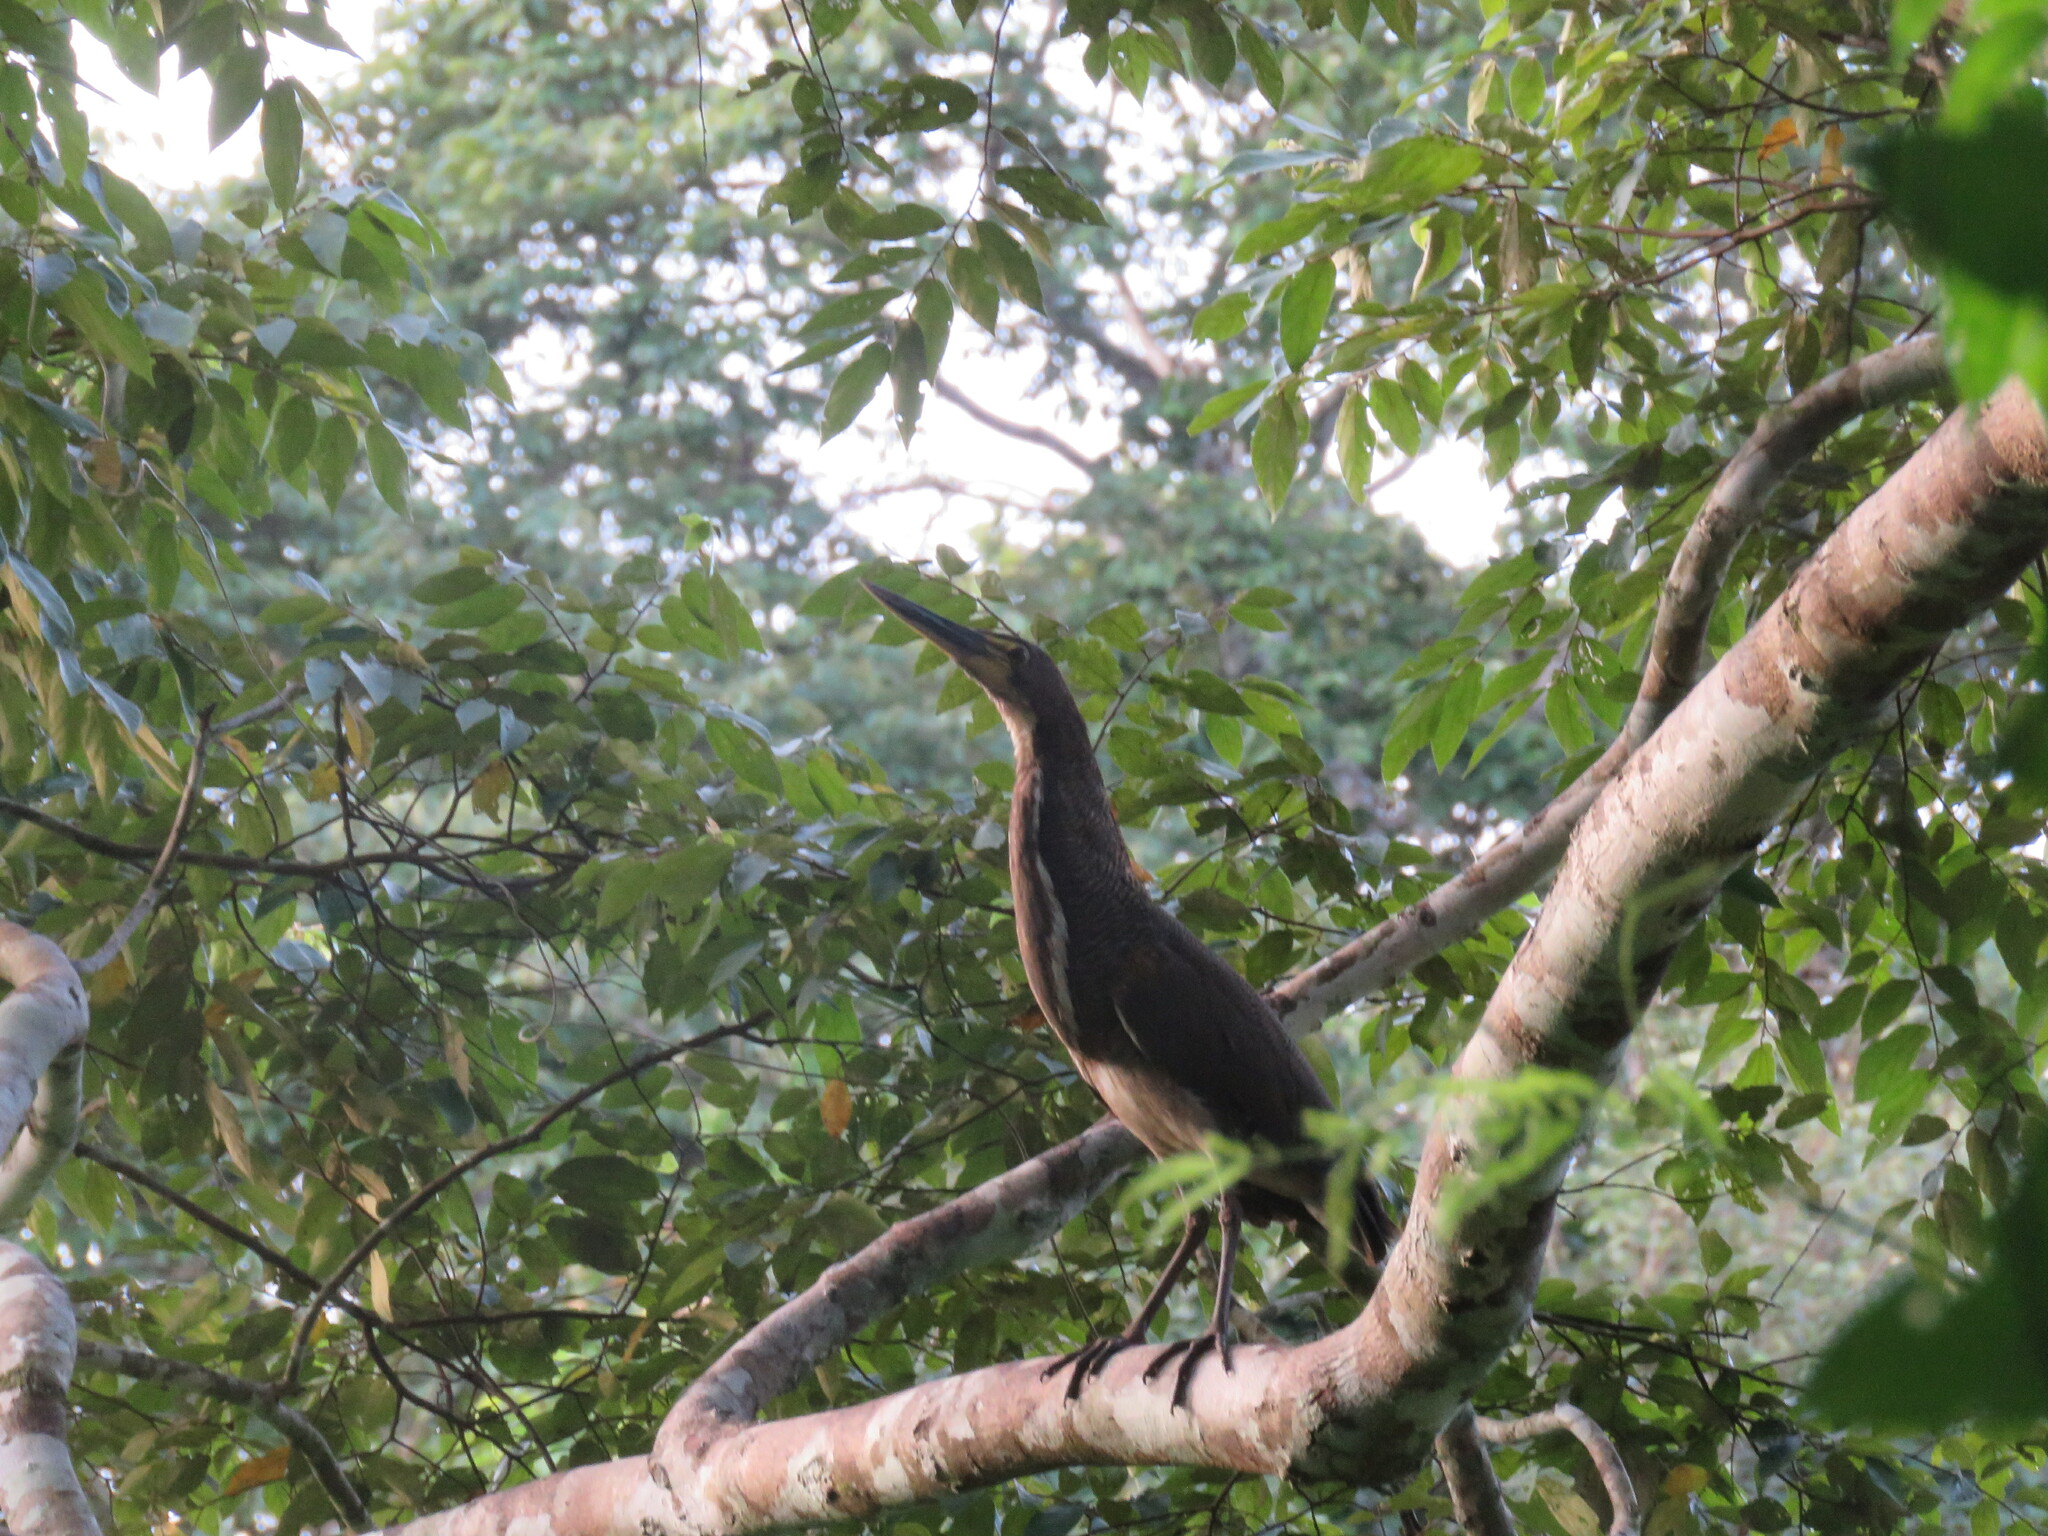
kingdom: Animalia
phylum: Chordata
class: Aves
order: Pelecaniformes
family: Ardeidae
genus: Tigrisoma
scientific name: Tigrisoma lineatum
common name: Rufescent tiger-heron
